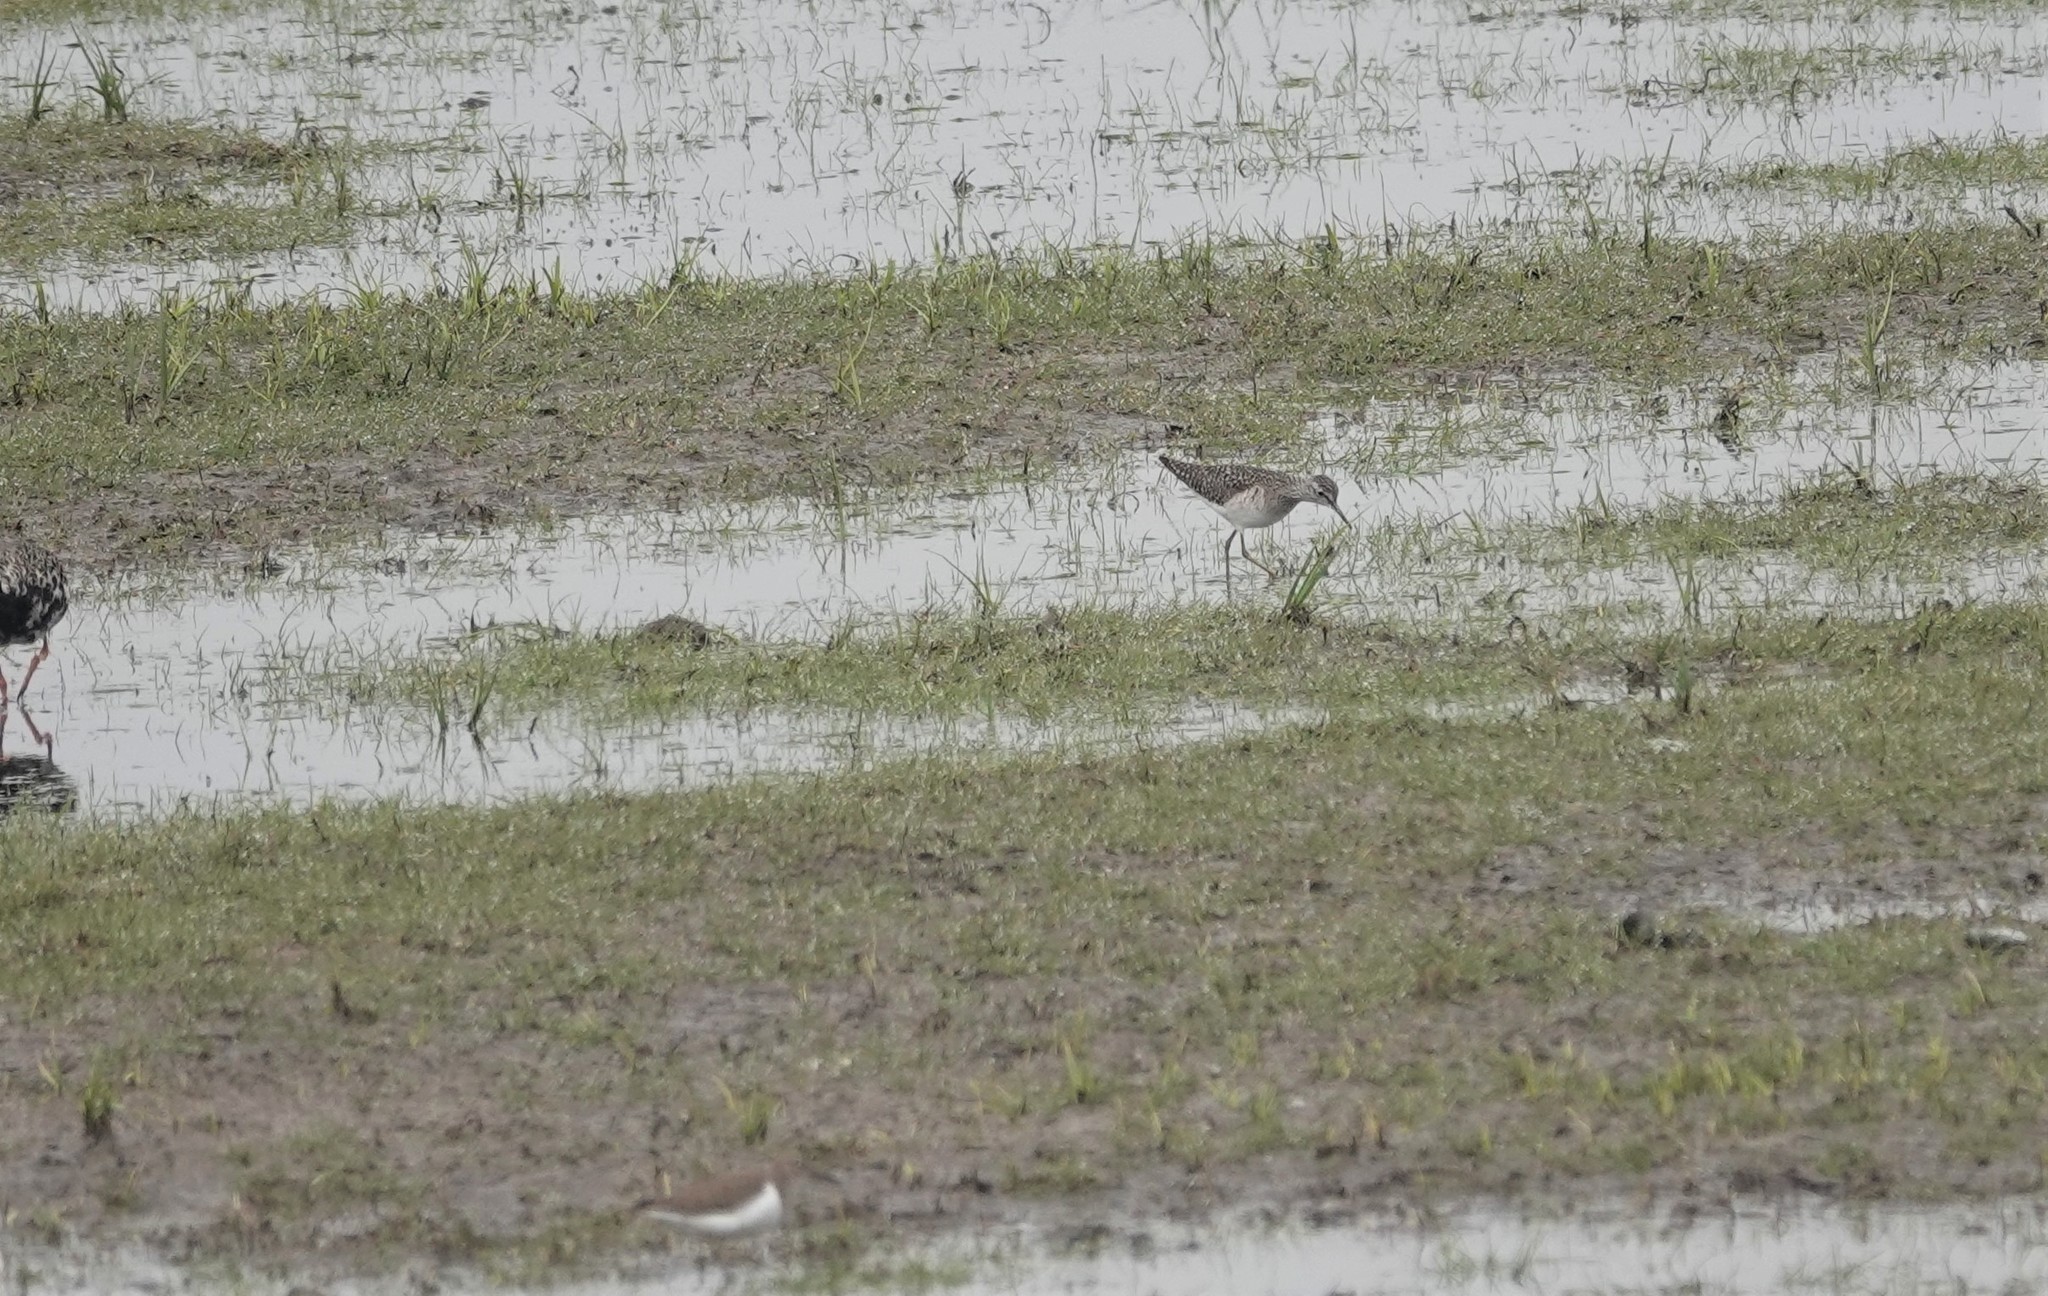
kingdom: Animalia
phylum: Chordata
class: Aves
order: Charadriiformes
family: Scolopacidae
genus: Tringa
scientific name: Tringa glareola
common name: Wood sandpiper
